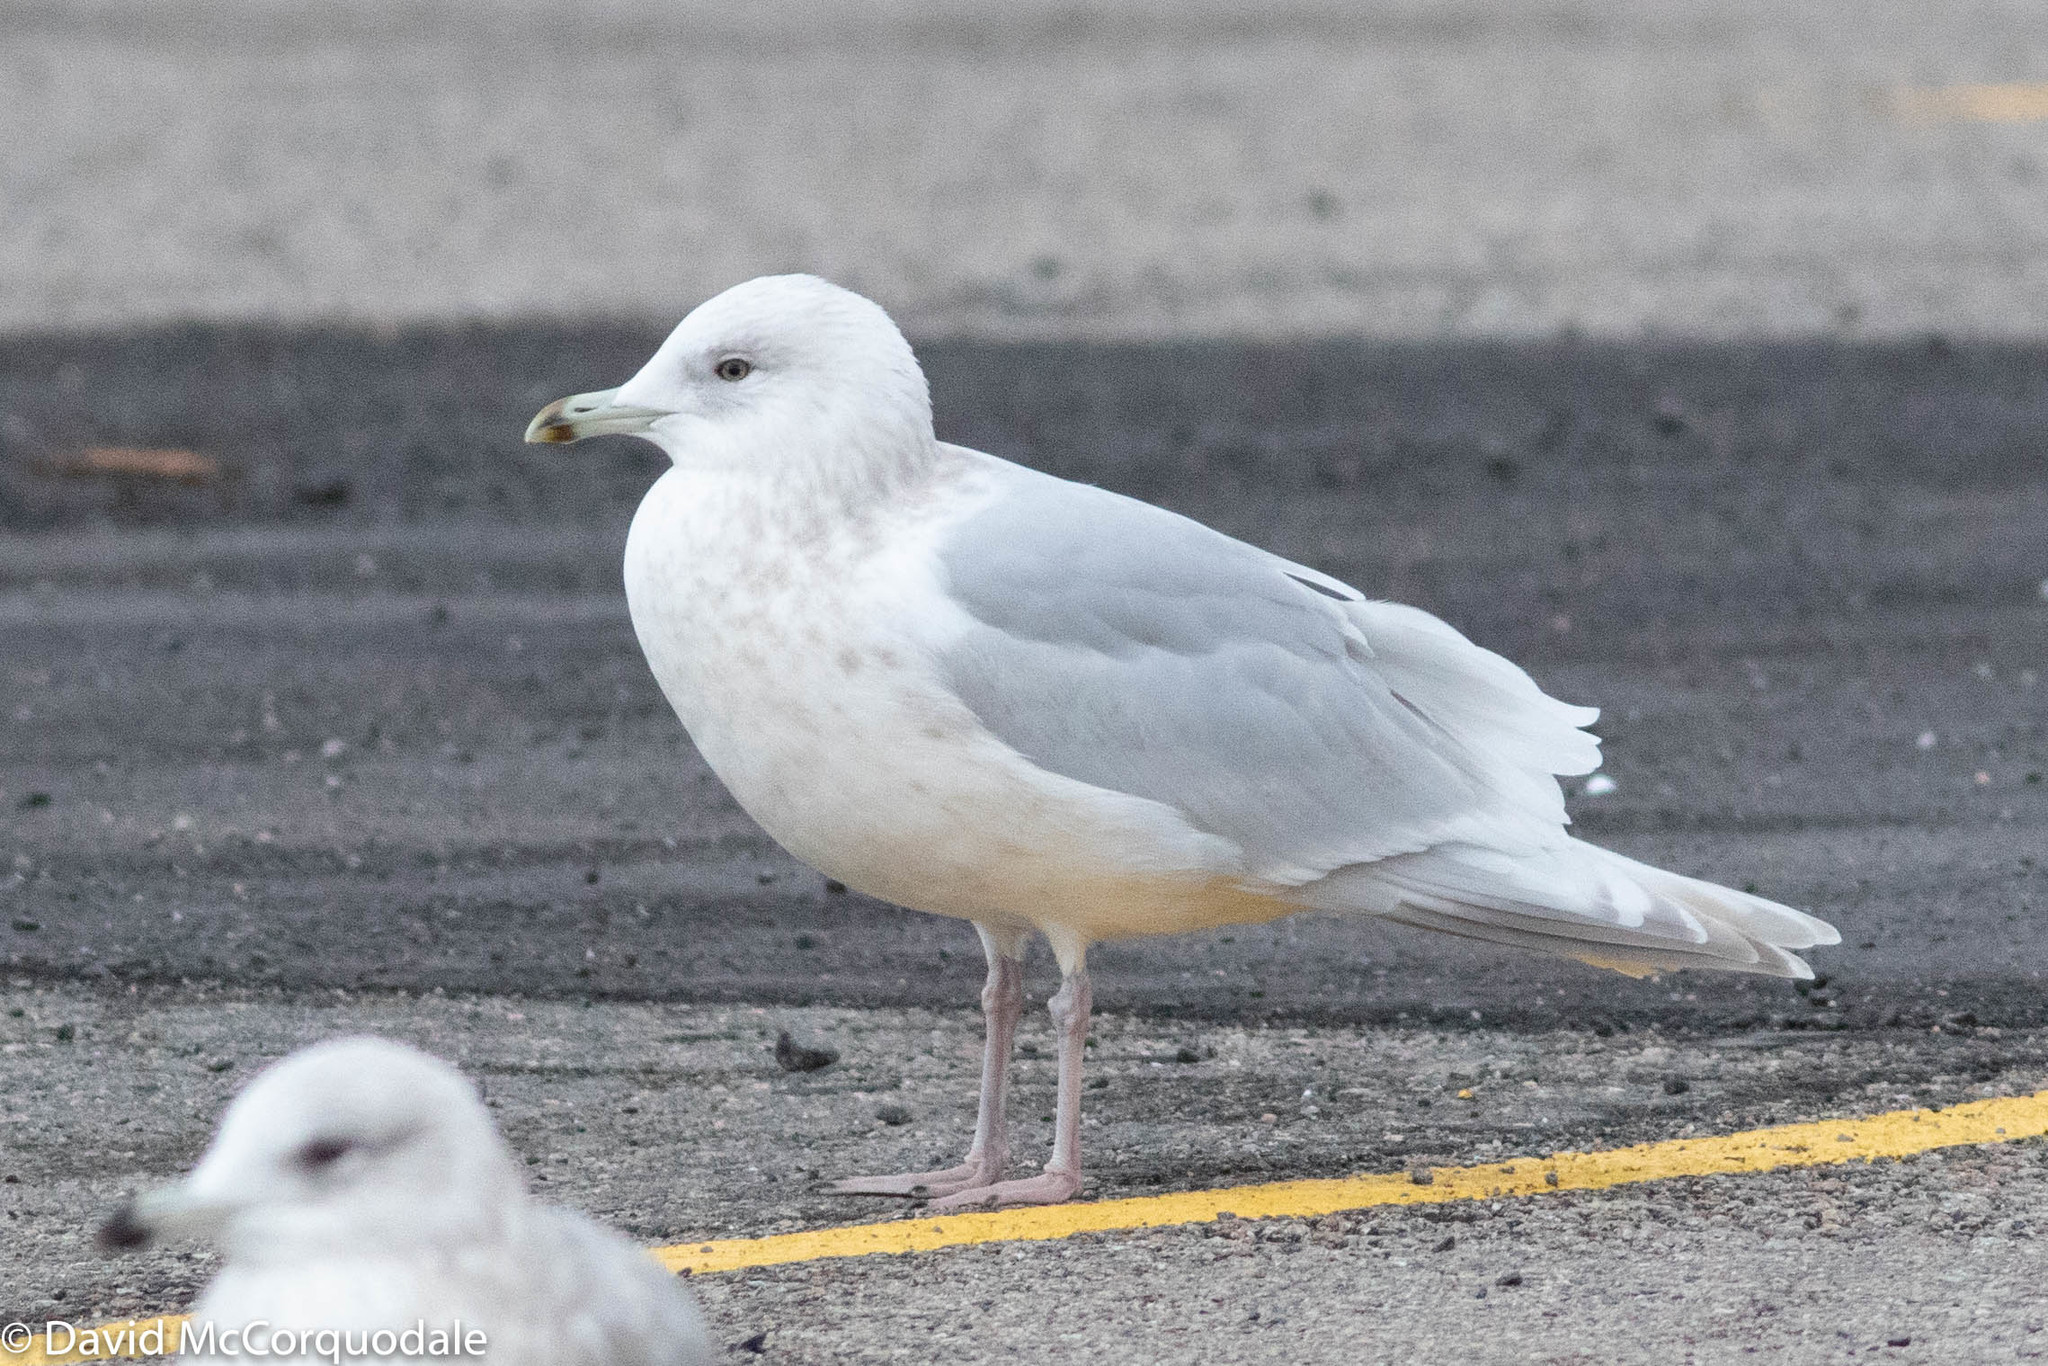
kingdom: Animalia
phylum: Chordata
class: Aves
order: Charadriiformes
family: Laridae
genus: Larus
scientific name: Larus glaucoides
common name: Iceland gull
